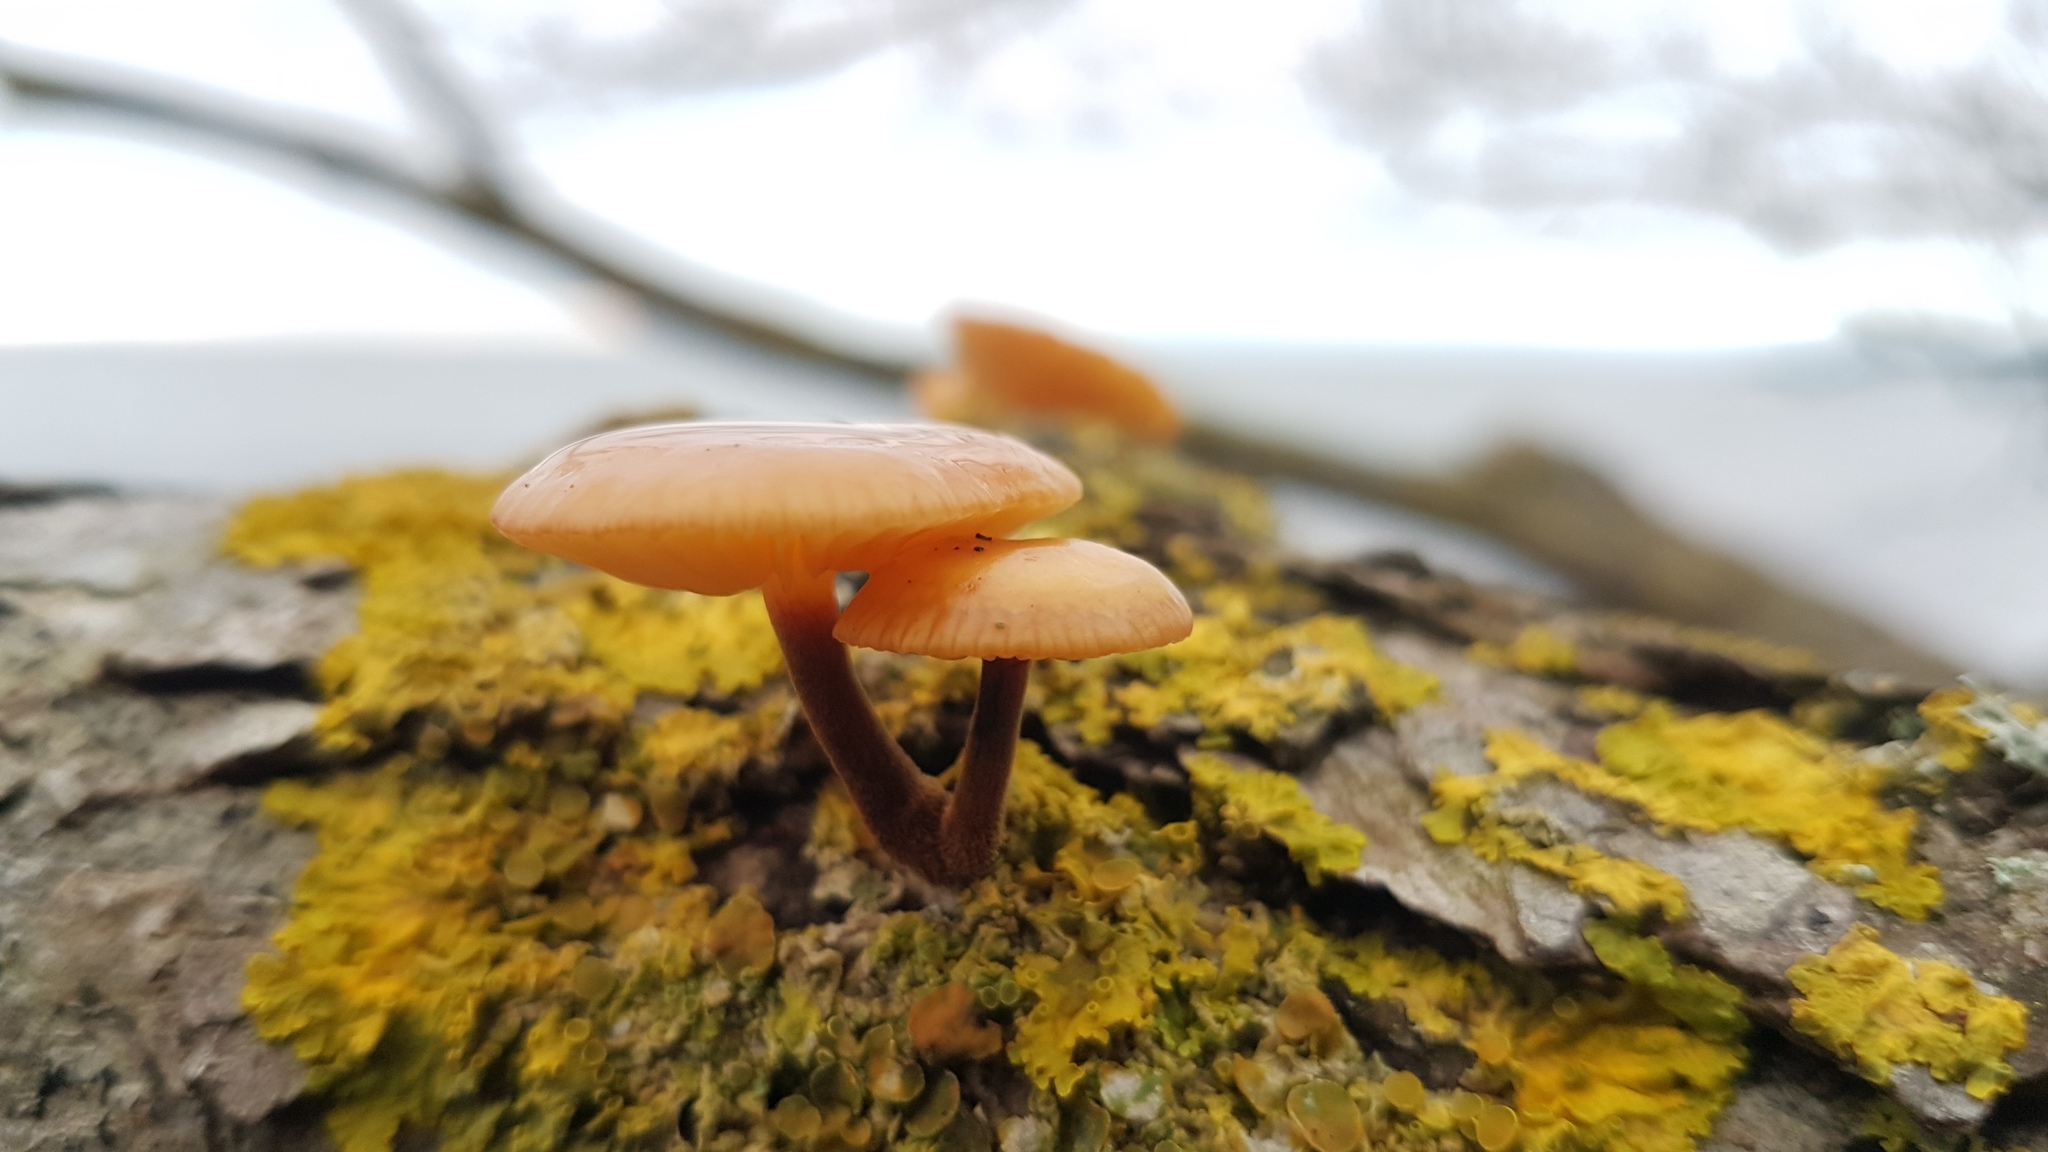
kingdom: Fungi
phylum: Basidiomycota
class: Agaricomycetes
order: Agaricales
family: Physalacriaceae
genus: Flammulina
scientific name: Flammulina
